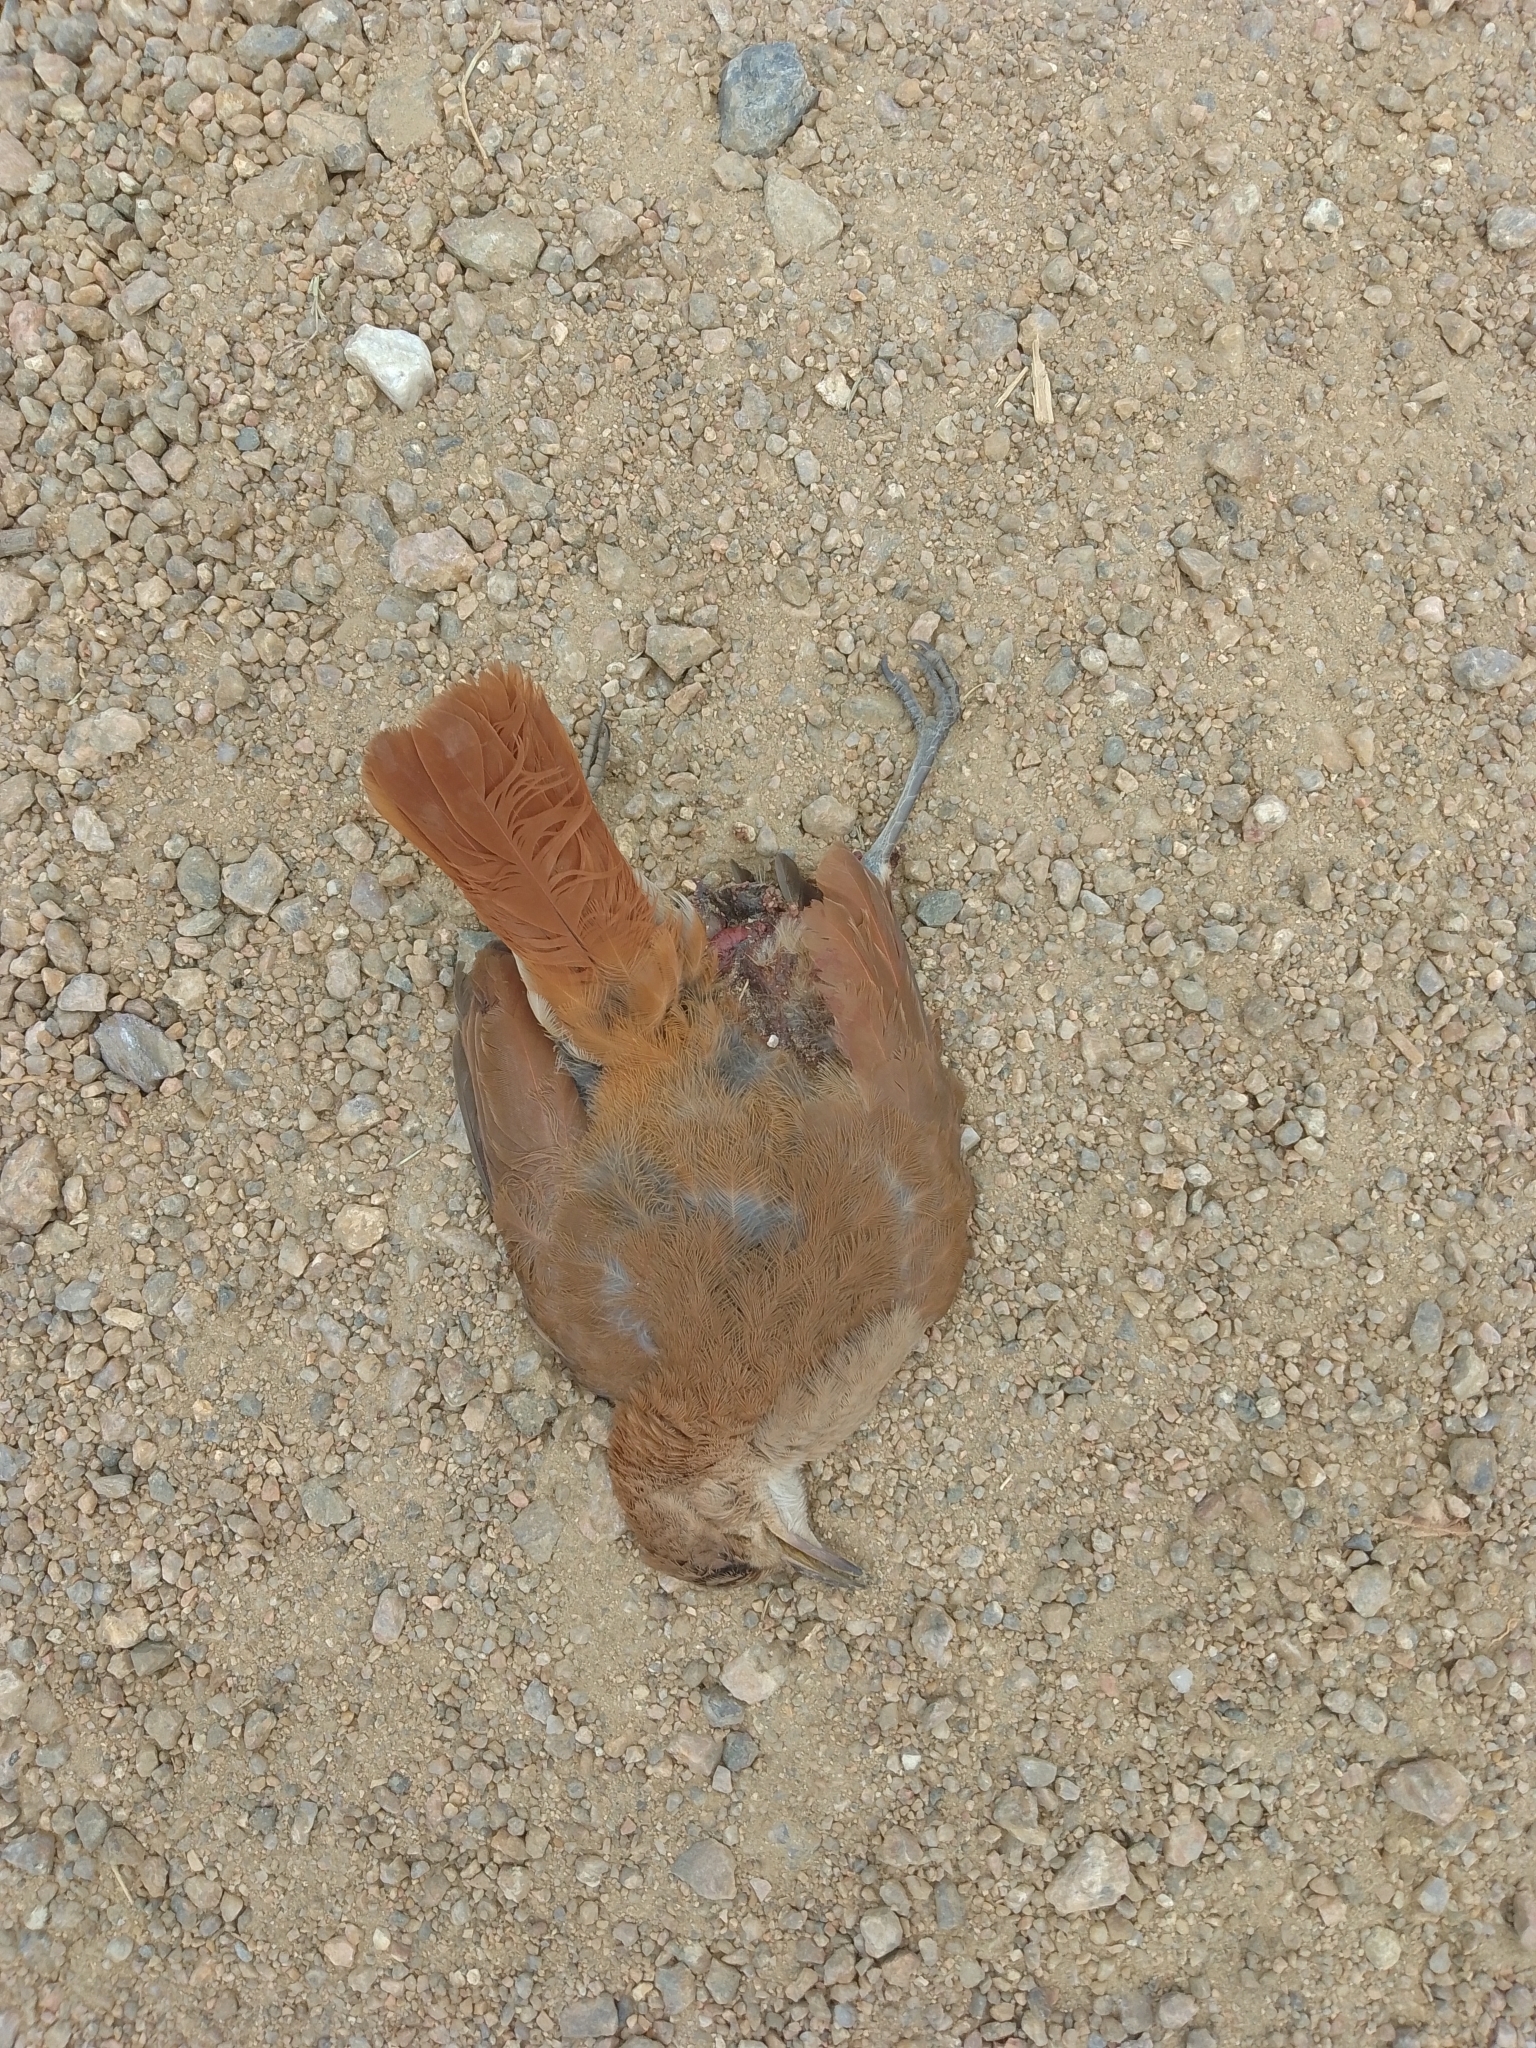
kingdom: Animalia
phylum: Chordata
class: Aves
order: Passeriformes
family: Furnariidae
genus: Furnarius
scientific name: Furnarius rufus
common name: Rufous hornero
